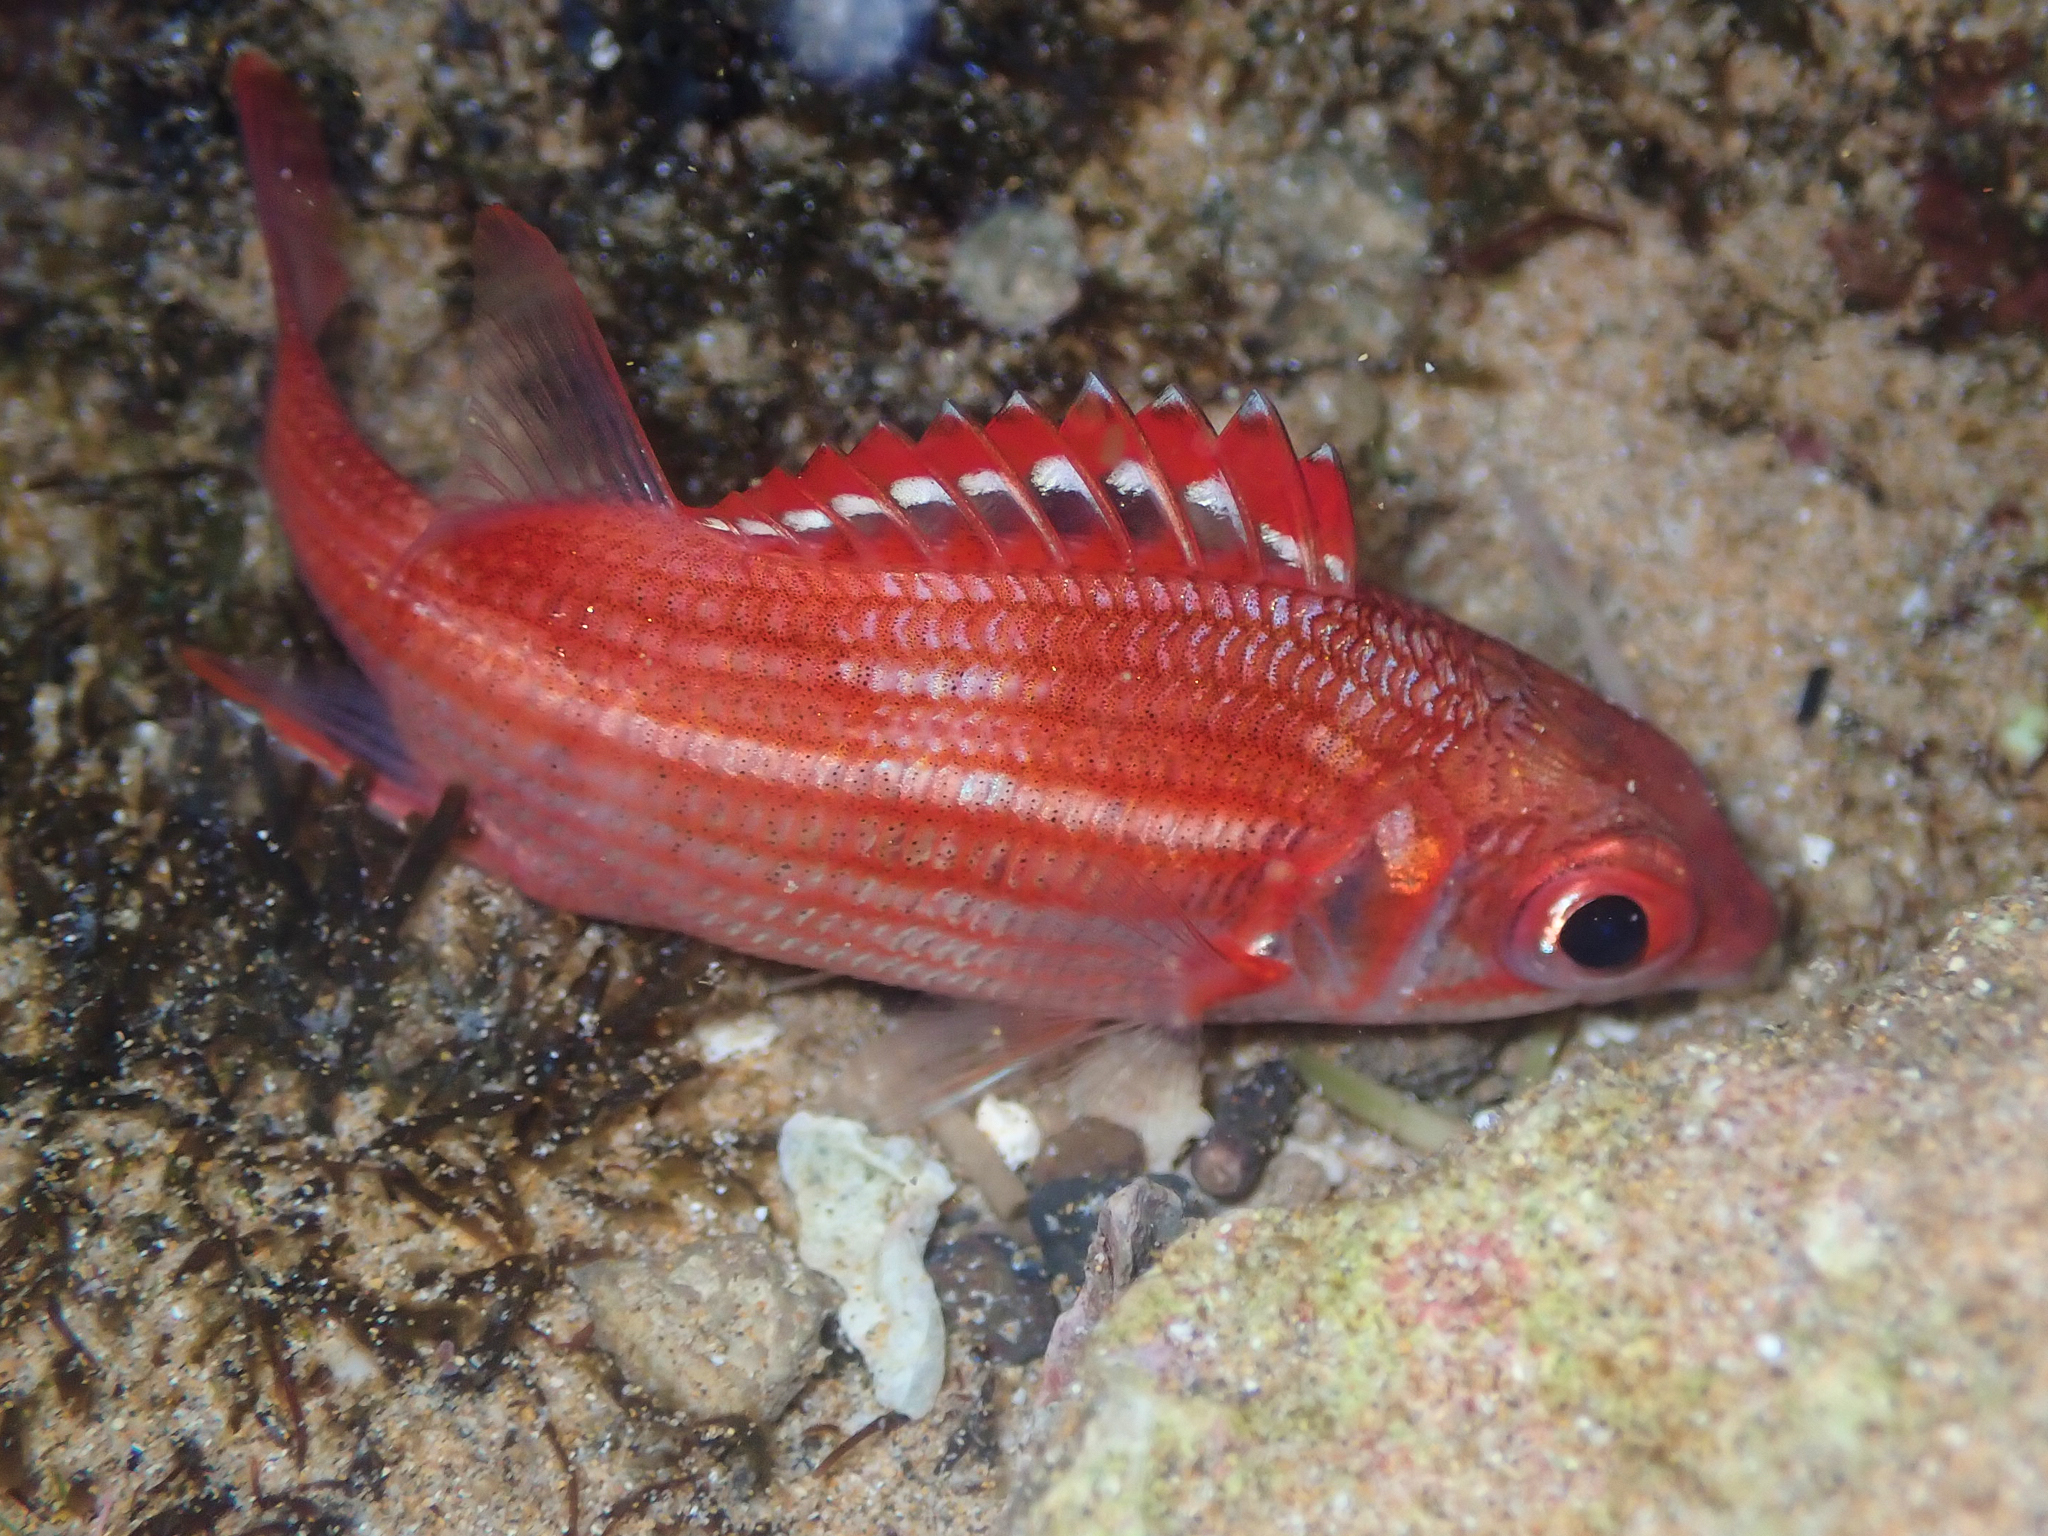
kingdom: Animalia
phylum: Chordata
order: Beryciformes
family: Holocentridae
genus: Sargocentron
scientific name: Sargocentron punctatissimum
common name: Peppered squirrelfish
